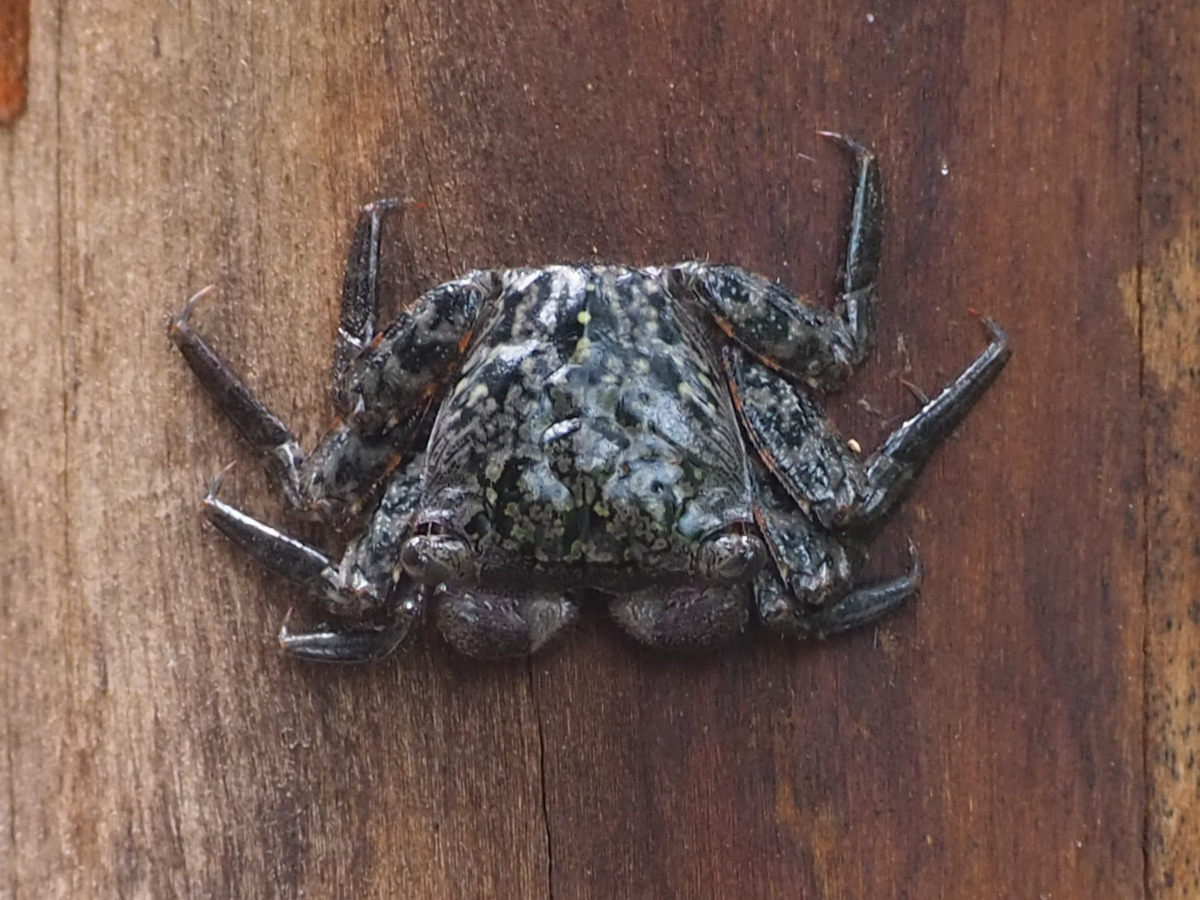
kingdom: Animalia
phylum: Arthropoda
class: Malacostraca
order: Decapoda
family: Sesarmidae
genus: Aratus
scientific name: Aratus pisonii
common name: Mangrove crab
